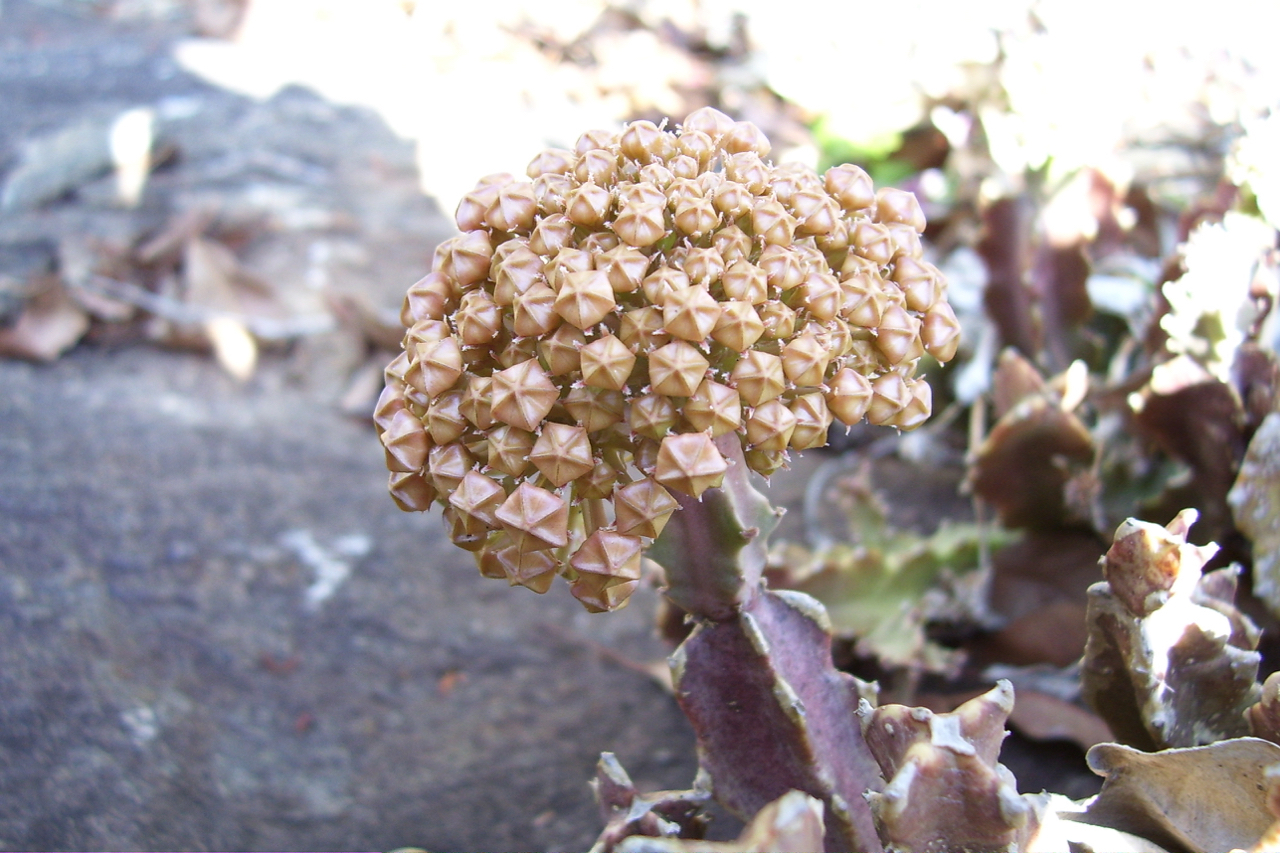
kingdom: Plantae
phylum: Tracheophyta
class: Magnoliopsida
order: Gentianales
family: Apocynaceae
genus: Ceropegia
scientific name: Ceropegia umbellata
